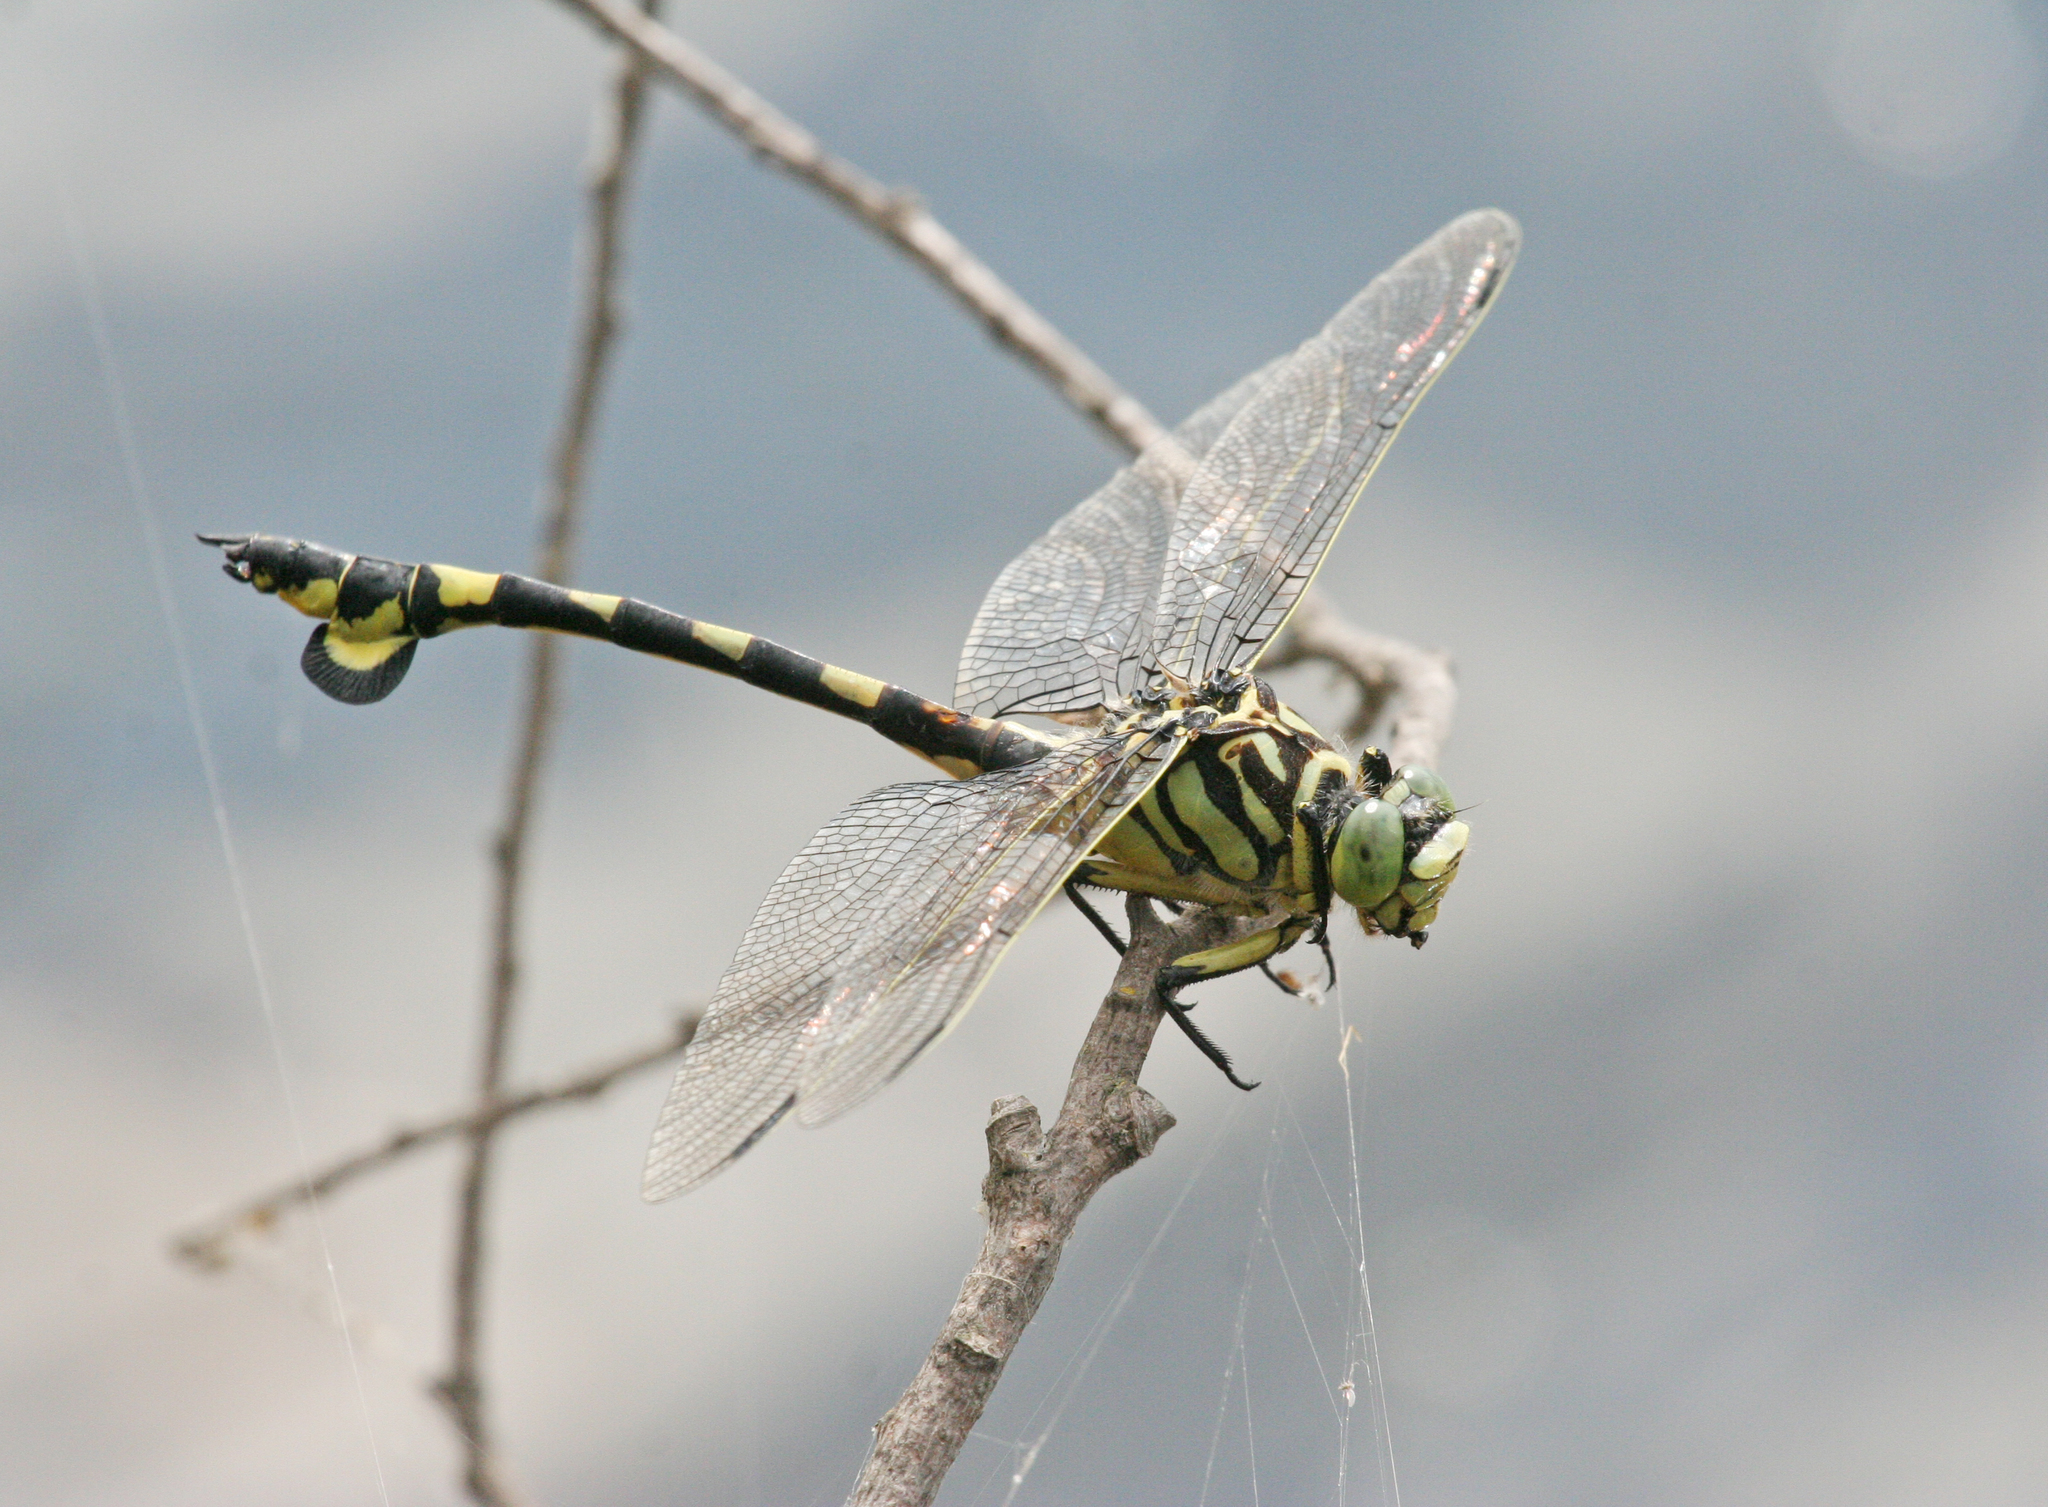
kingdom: Animalia
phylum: Arthropoda
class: Insecta
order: Odonata
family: Gomphidae
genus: Sinictinogomphus
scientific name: Sinictinogomphus clavatus
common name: Golden flangetail
